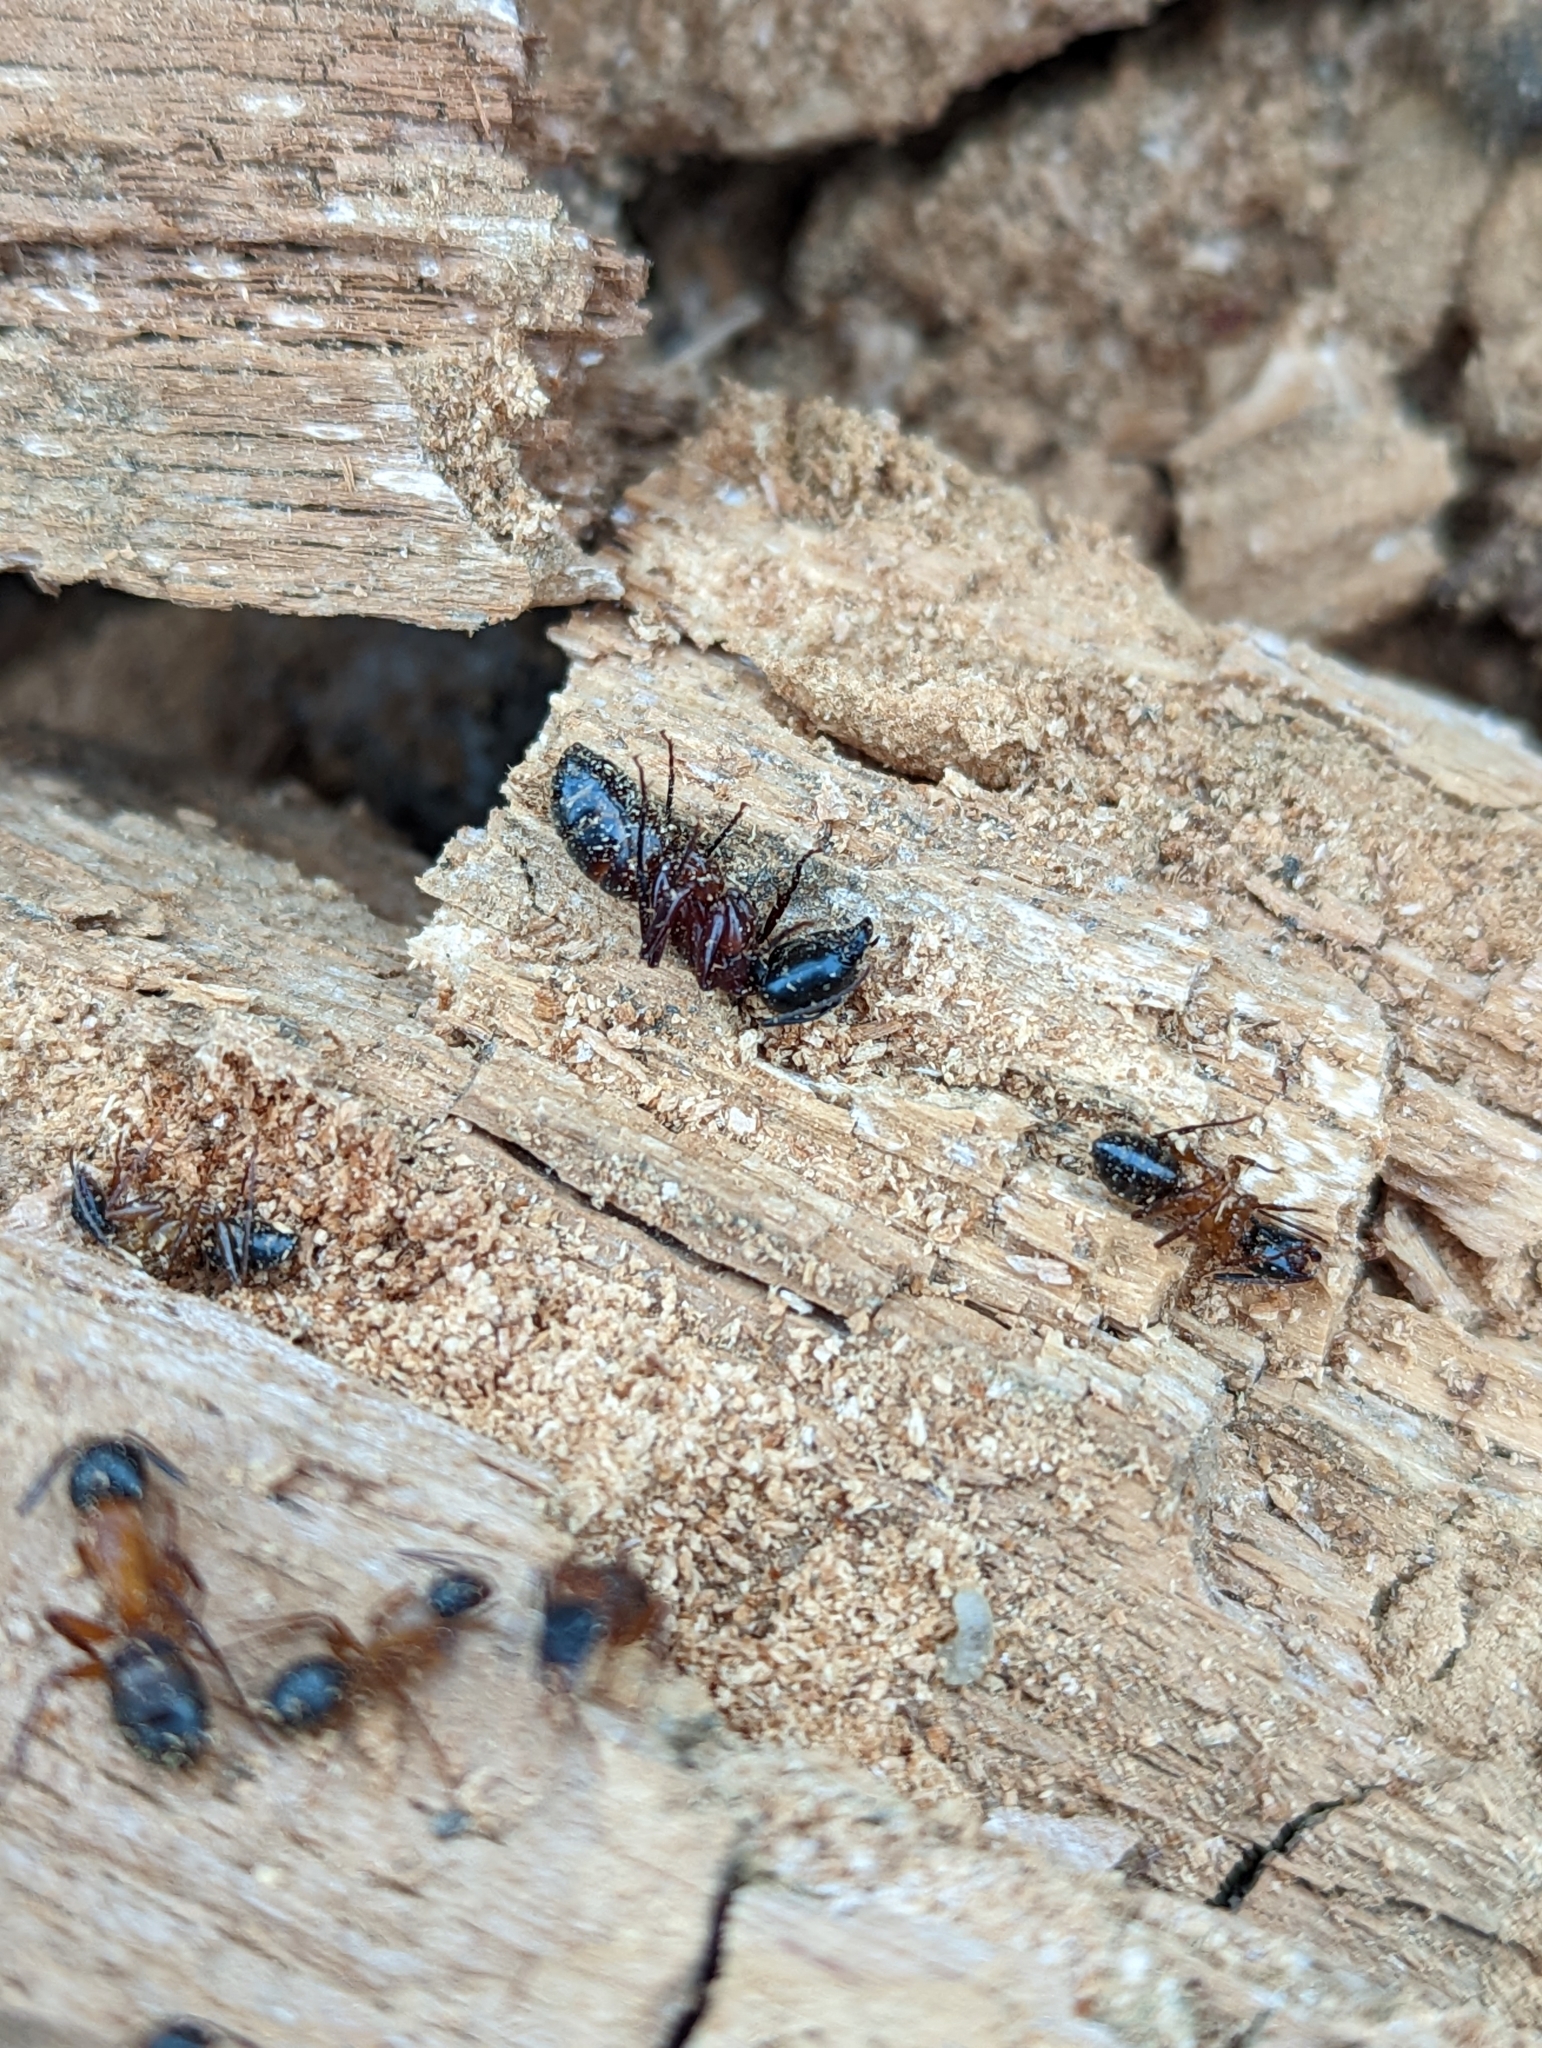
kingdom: Animalia
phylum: Arthropoda
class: Insecta
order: Hymenoptera
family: Formicidae
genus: Camponotus
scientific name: Camponotus vicinus
